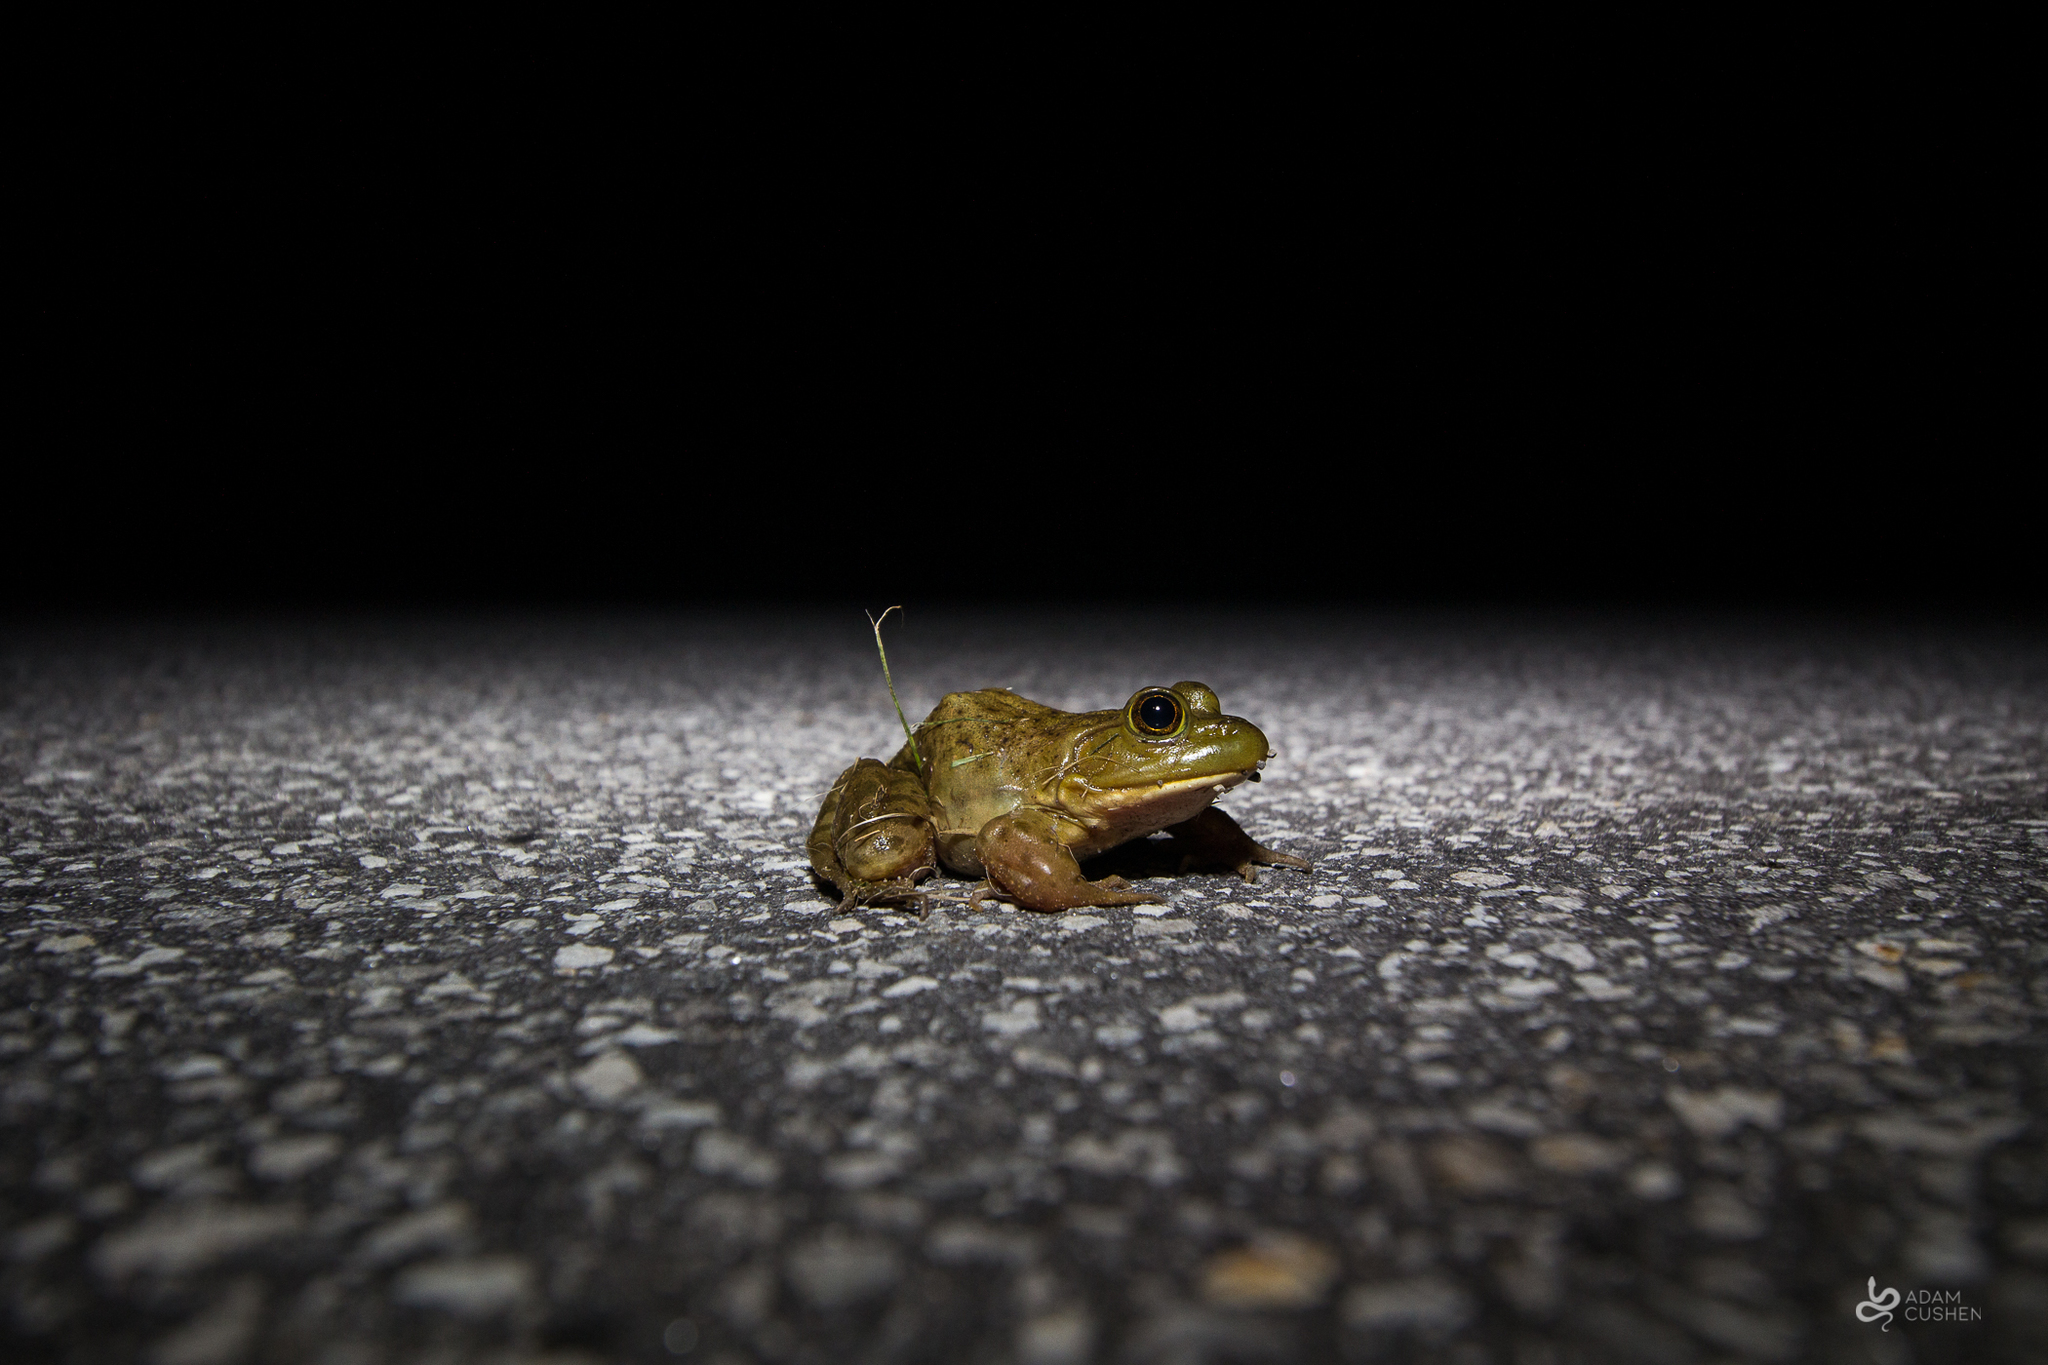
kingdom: Animalia
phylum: Chordata
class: Amphibia
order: Anura
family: Ranidae
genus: Lithobates
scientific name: Lithobates catesbeianus
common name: American bullfrog
